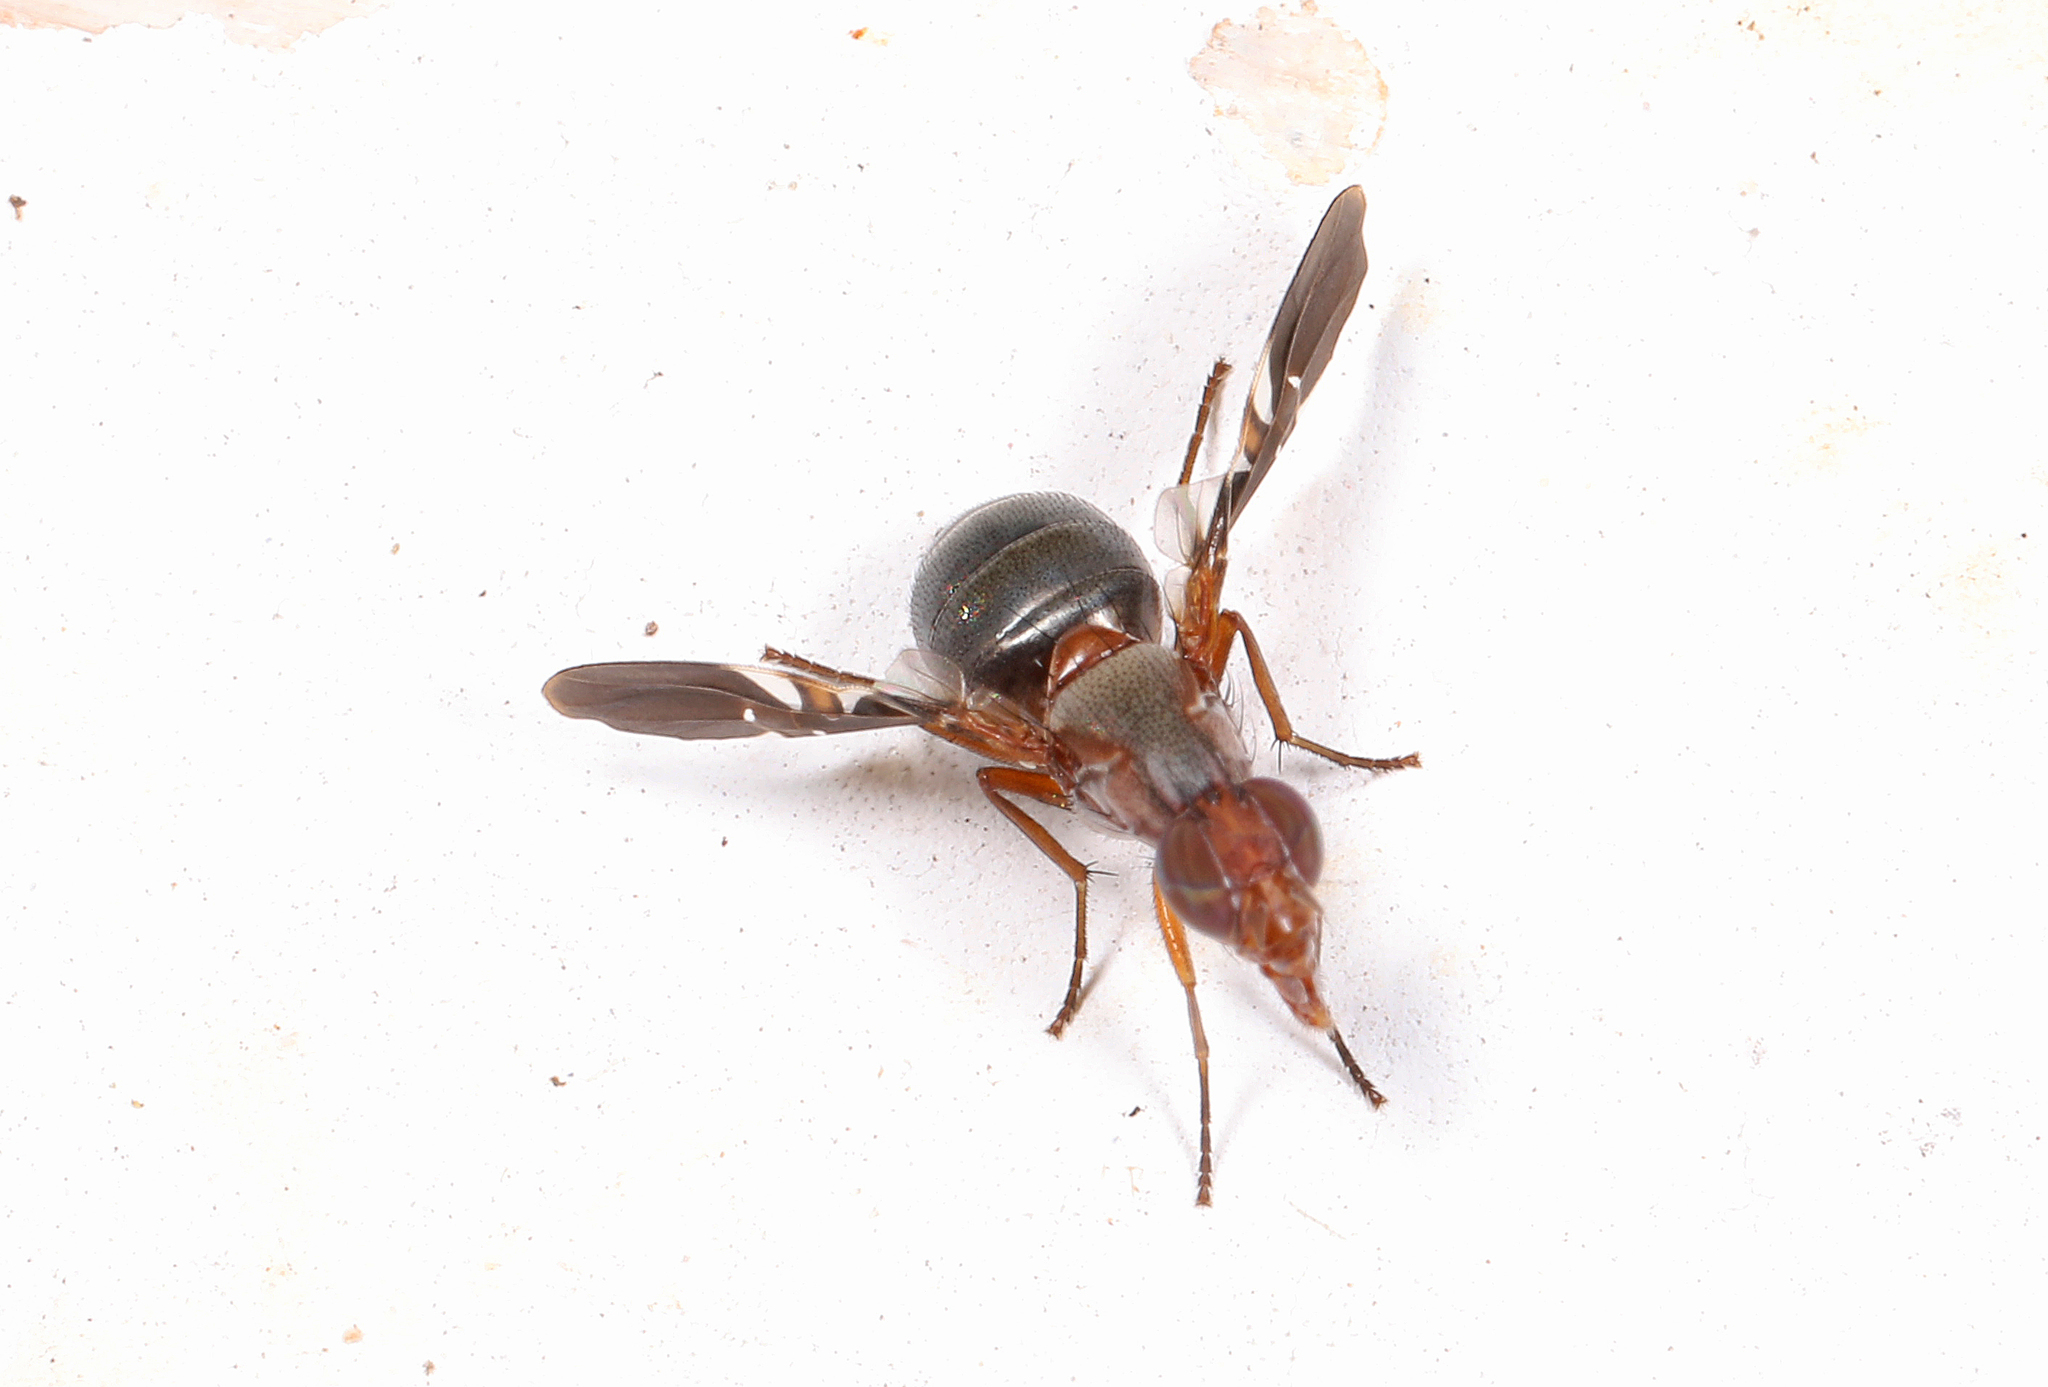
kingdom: Animalia
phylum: Arthropoda
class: Insecta
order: Diptera
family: Ulidiidae
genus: Delphinia
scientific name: Delphinia picta
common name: Common picture-winged fly
